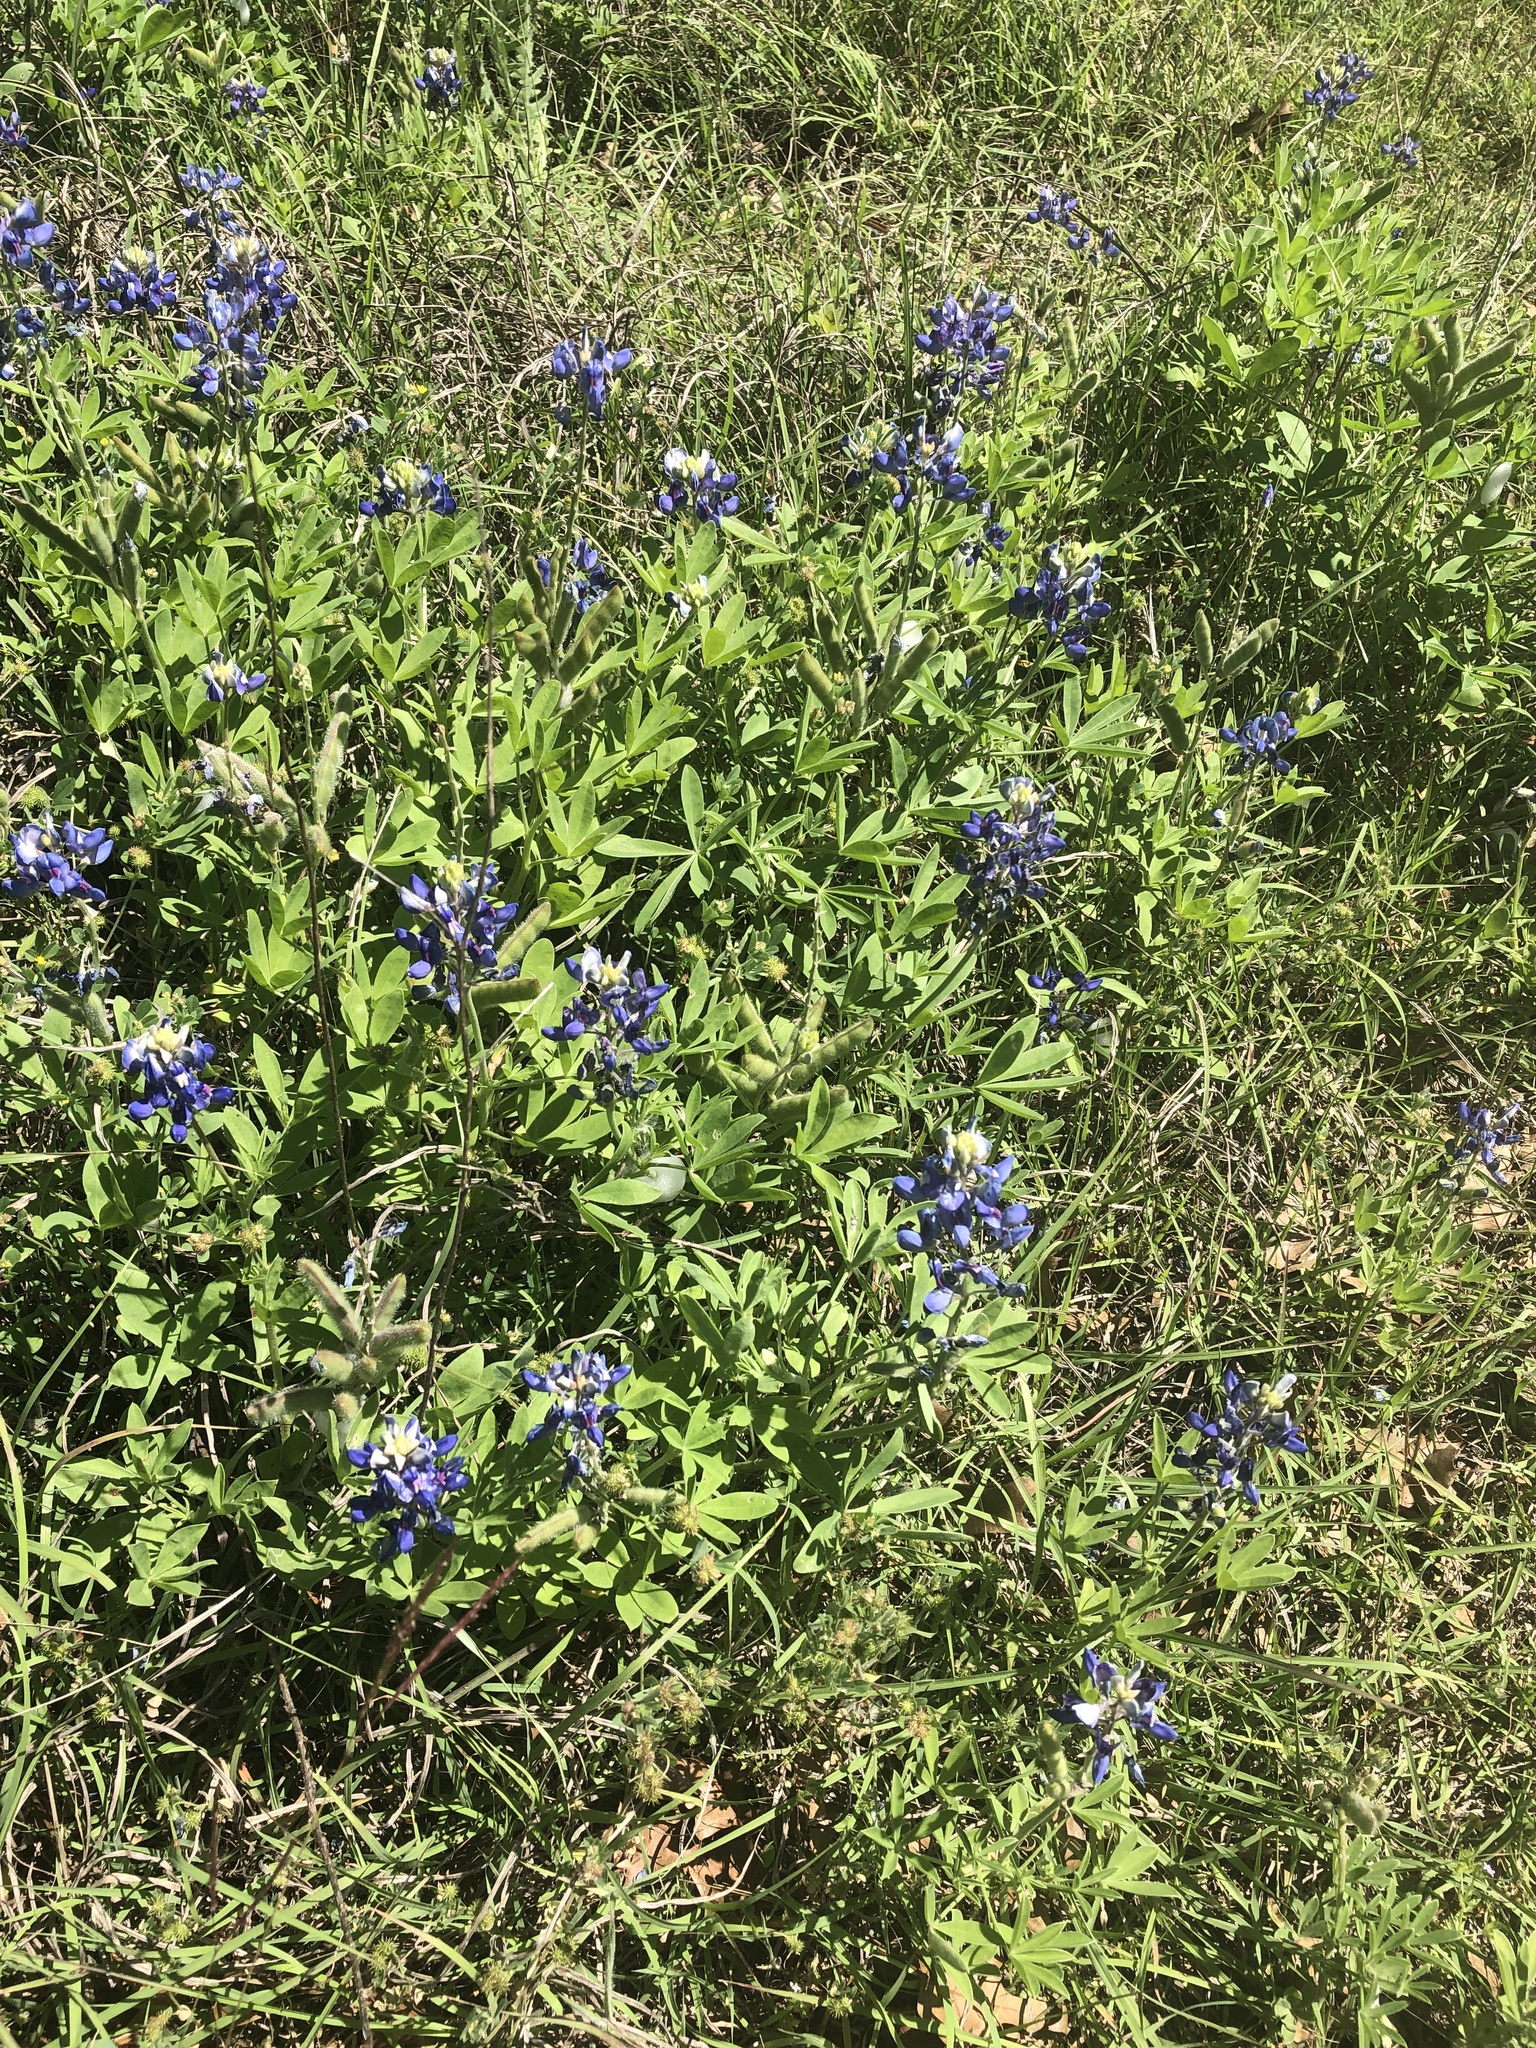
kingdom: Plantae
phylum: Tracheophyta
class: Magnoliopsida
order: Fabales
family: Fabaceae
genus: Lupinus
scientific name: Lupinus texensis
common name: Texas bluebonnet
